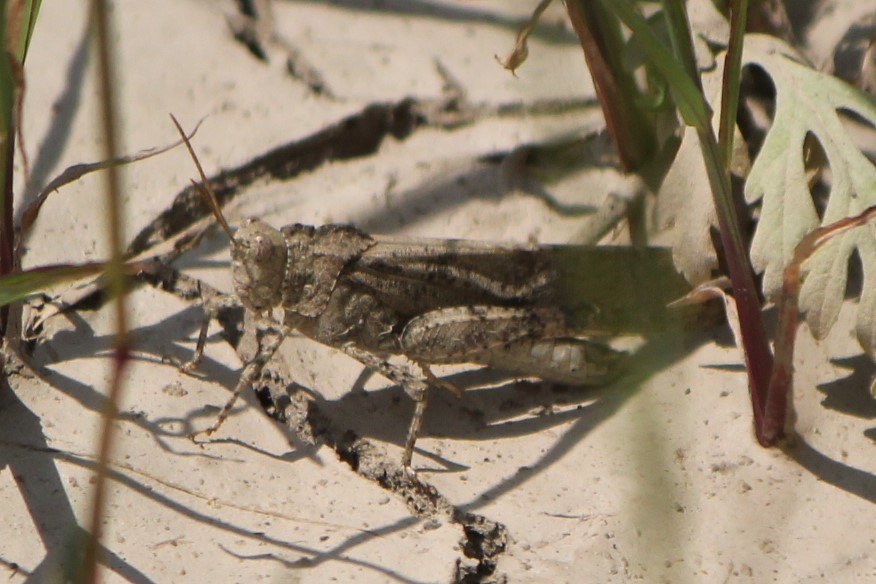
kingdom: Animalia
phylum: Arthropoda
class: Insecta
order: Orthoptera
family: Acrididae
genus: Dissosteira
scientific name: Dissosteira carolina
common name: Carolina grasshopper
